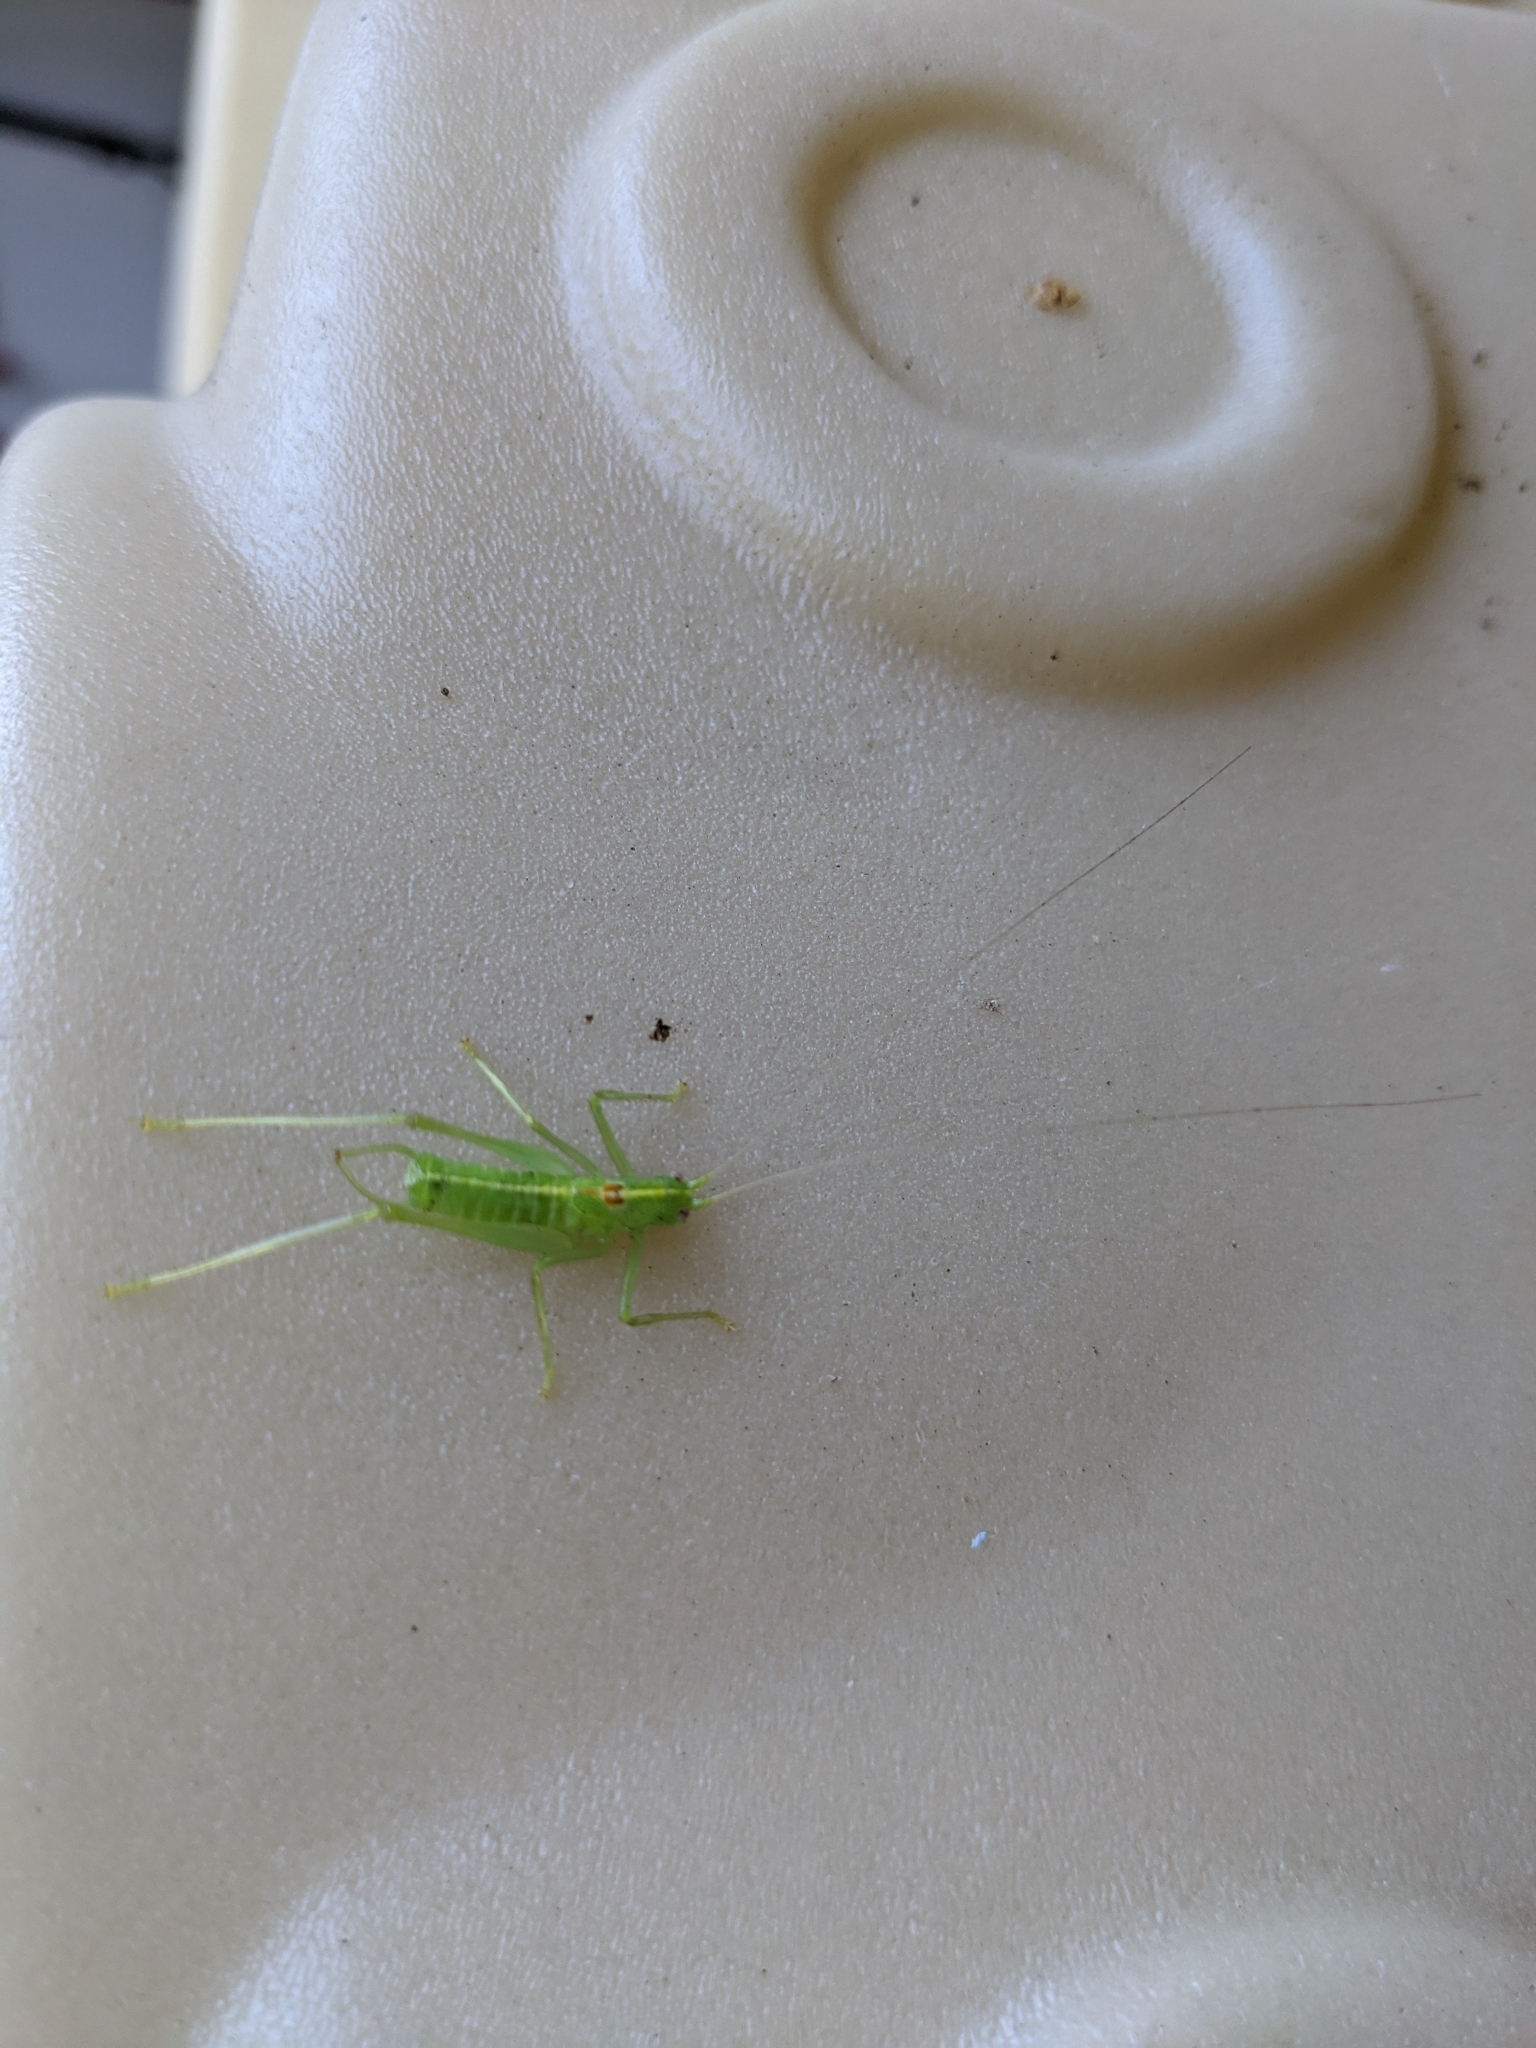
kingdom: Animalia
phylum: Arthropoda
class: Insecta
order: Orthoptera
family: Tettigoniidae
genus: Meconema
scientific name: Meconema meridionale
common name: Southern oak bush-cricket
